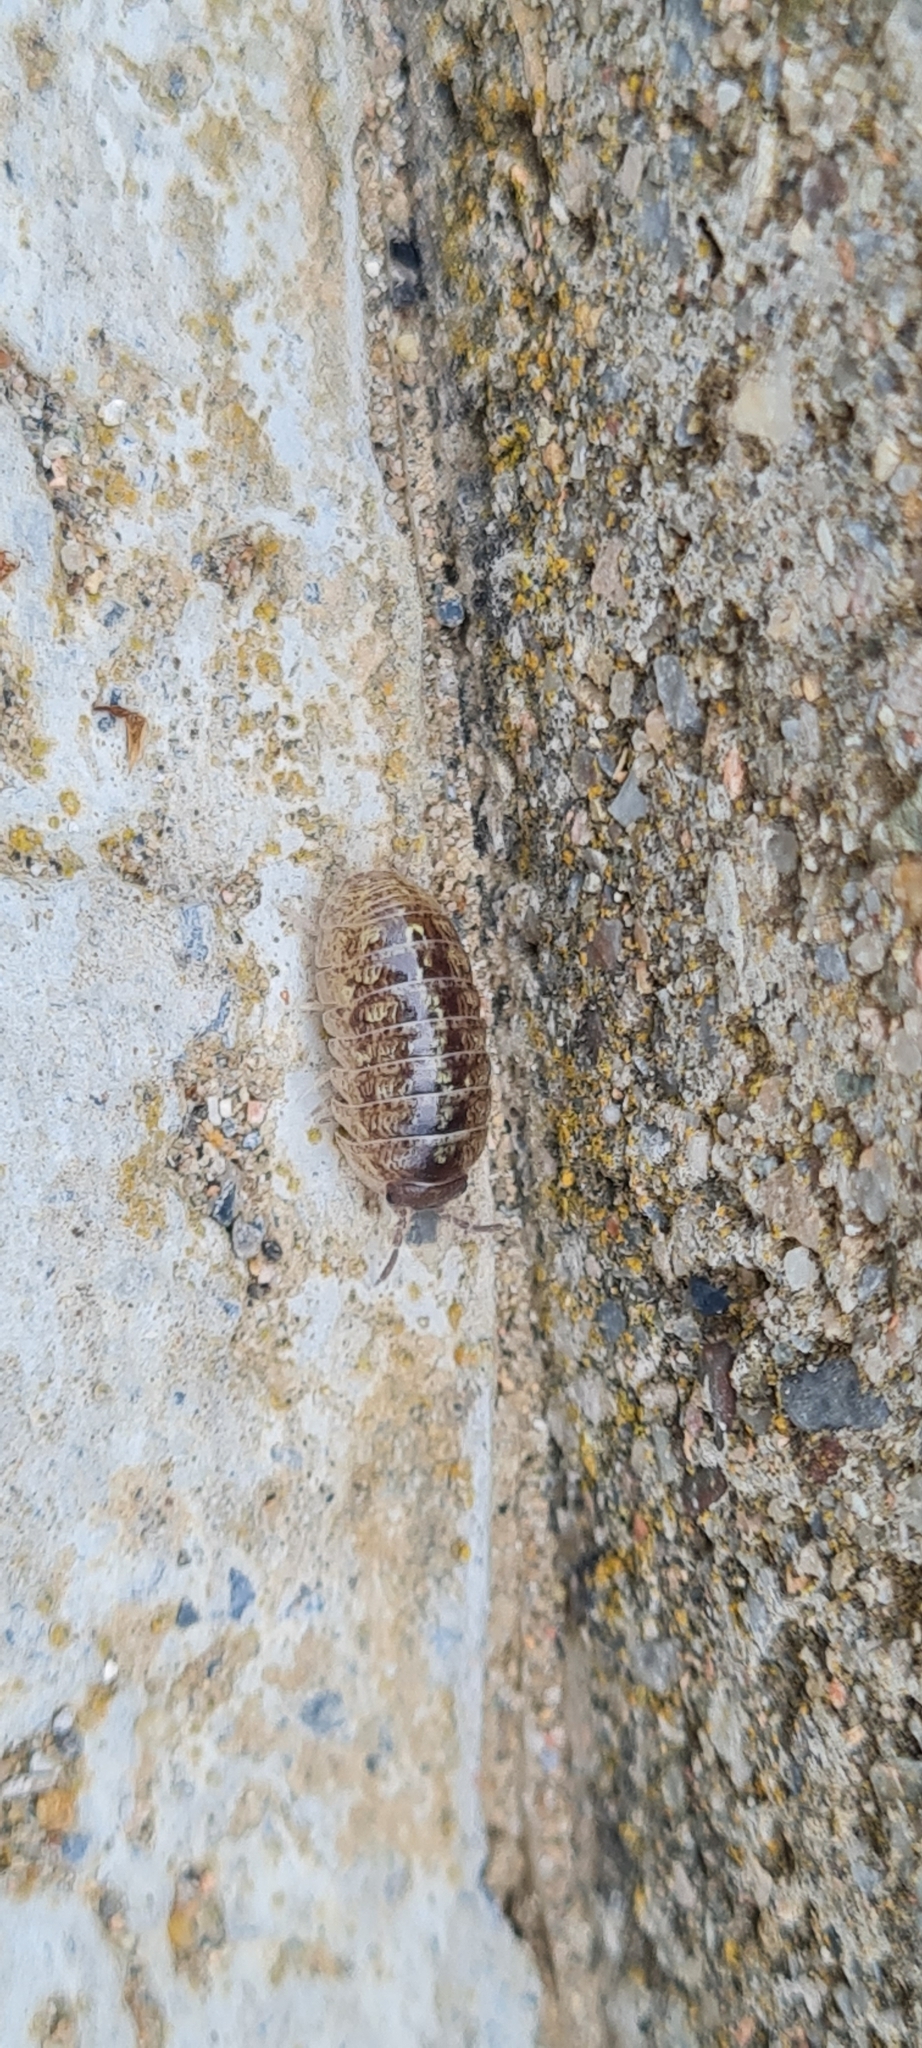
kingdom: Animalia
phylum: Arthropoda
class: Malacostraca
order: Isopoda
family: Armadillidiidae
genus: Armadillidium
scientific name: Armadillidium vulgare
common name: Common pill woodlouse
